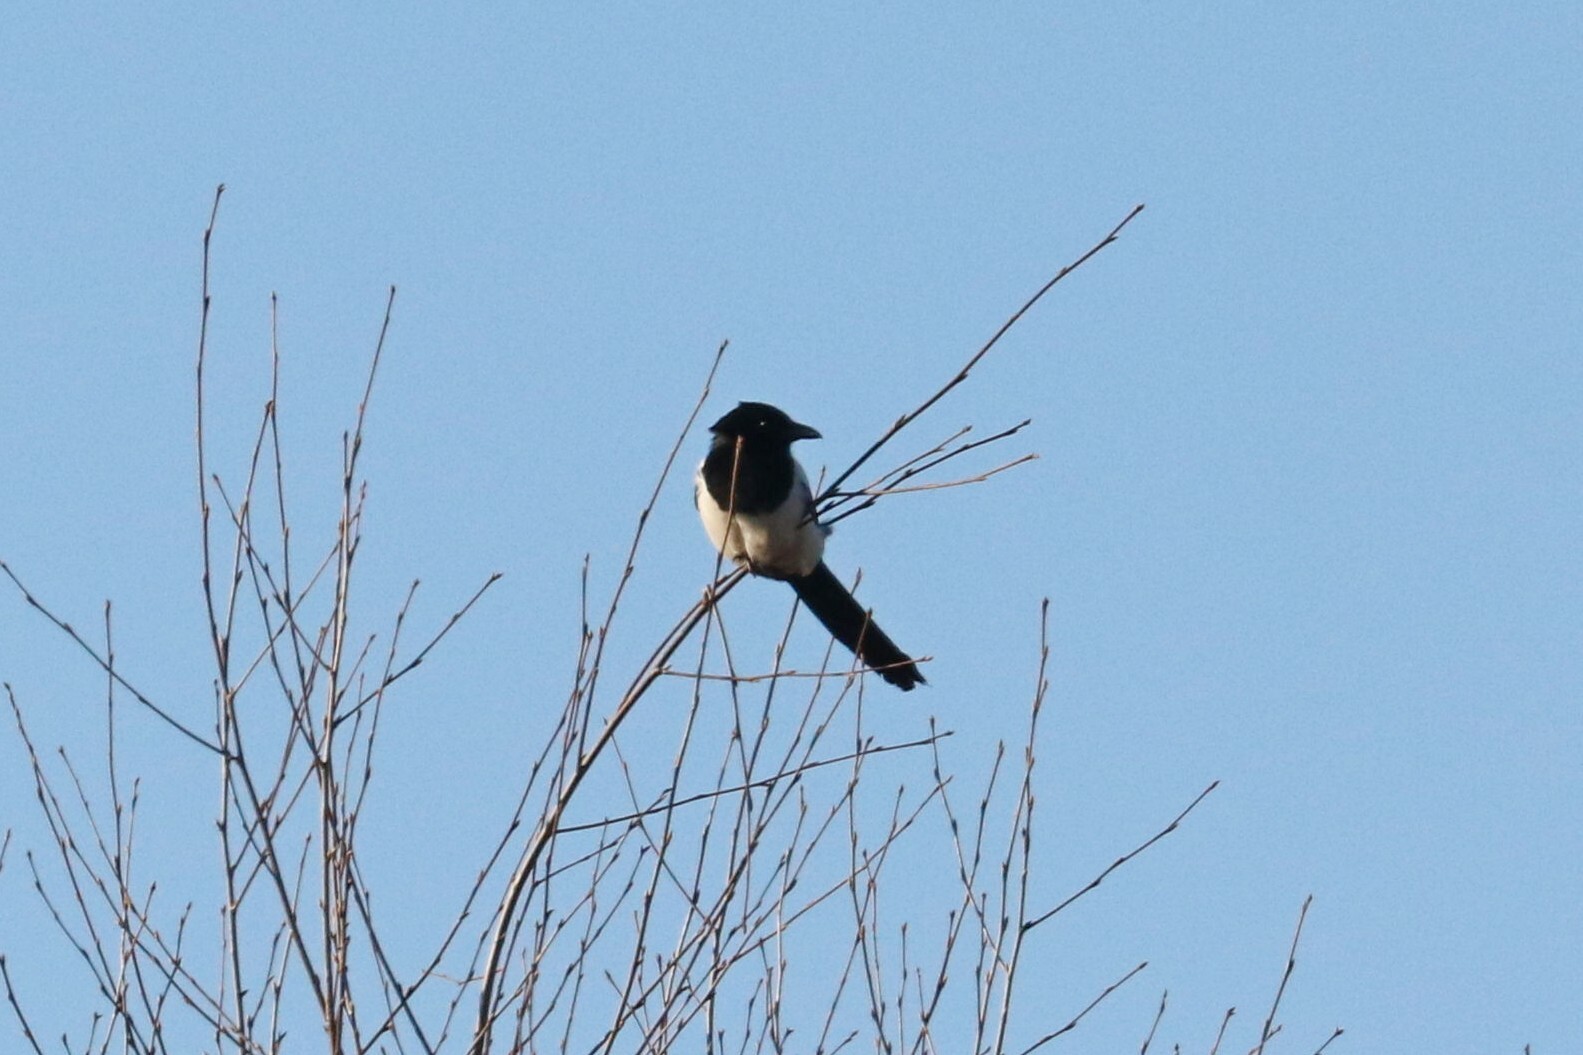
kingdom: Animalia
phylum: Chordata
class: Aves
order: Passeriformes
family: Corvidae
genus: Pica
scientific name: Pica pica
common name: Eurasian magpie
